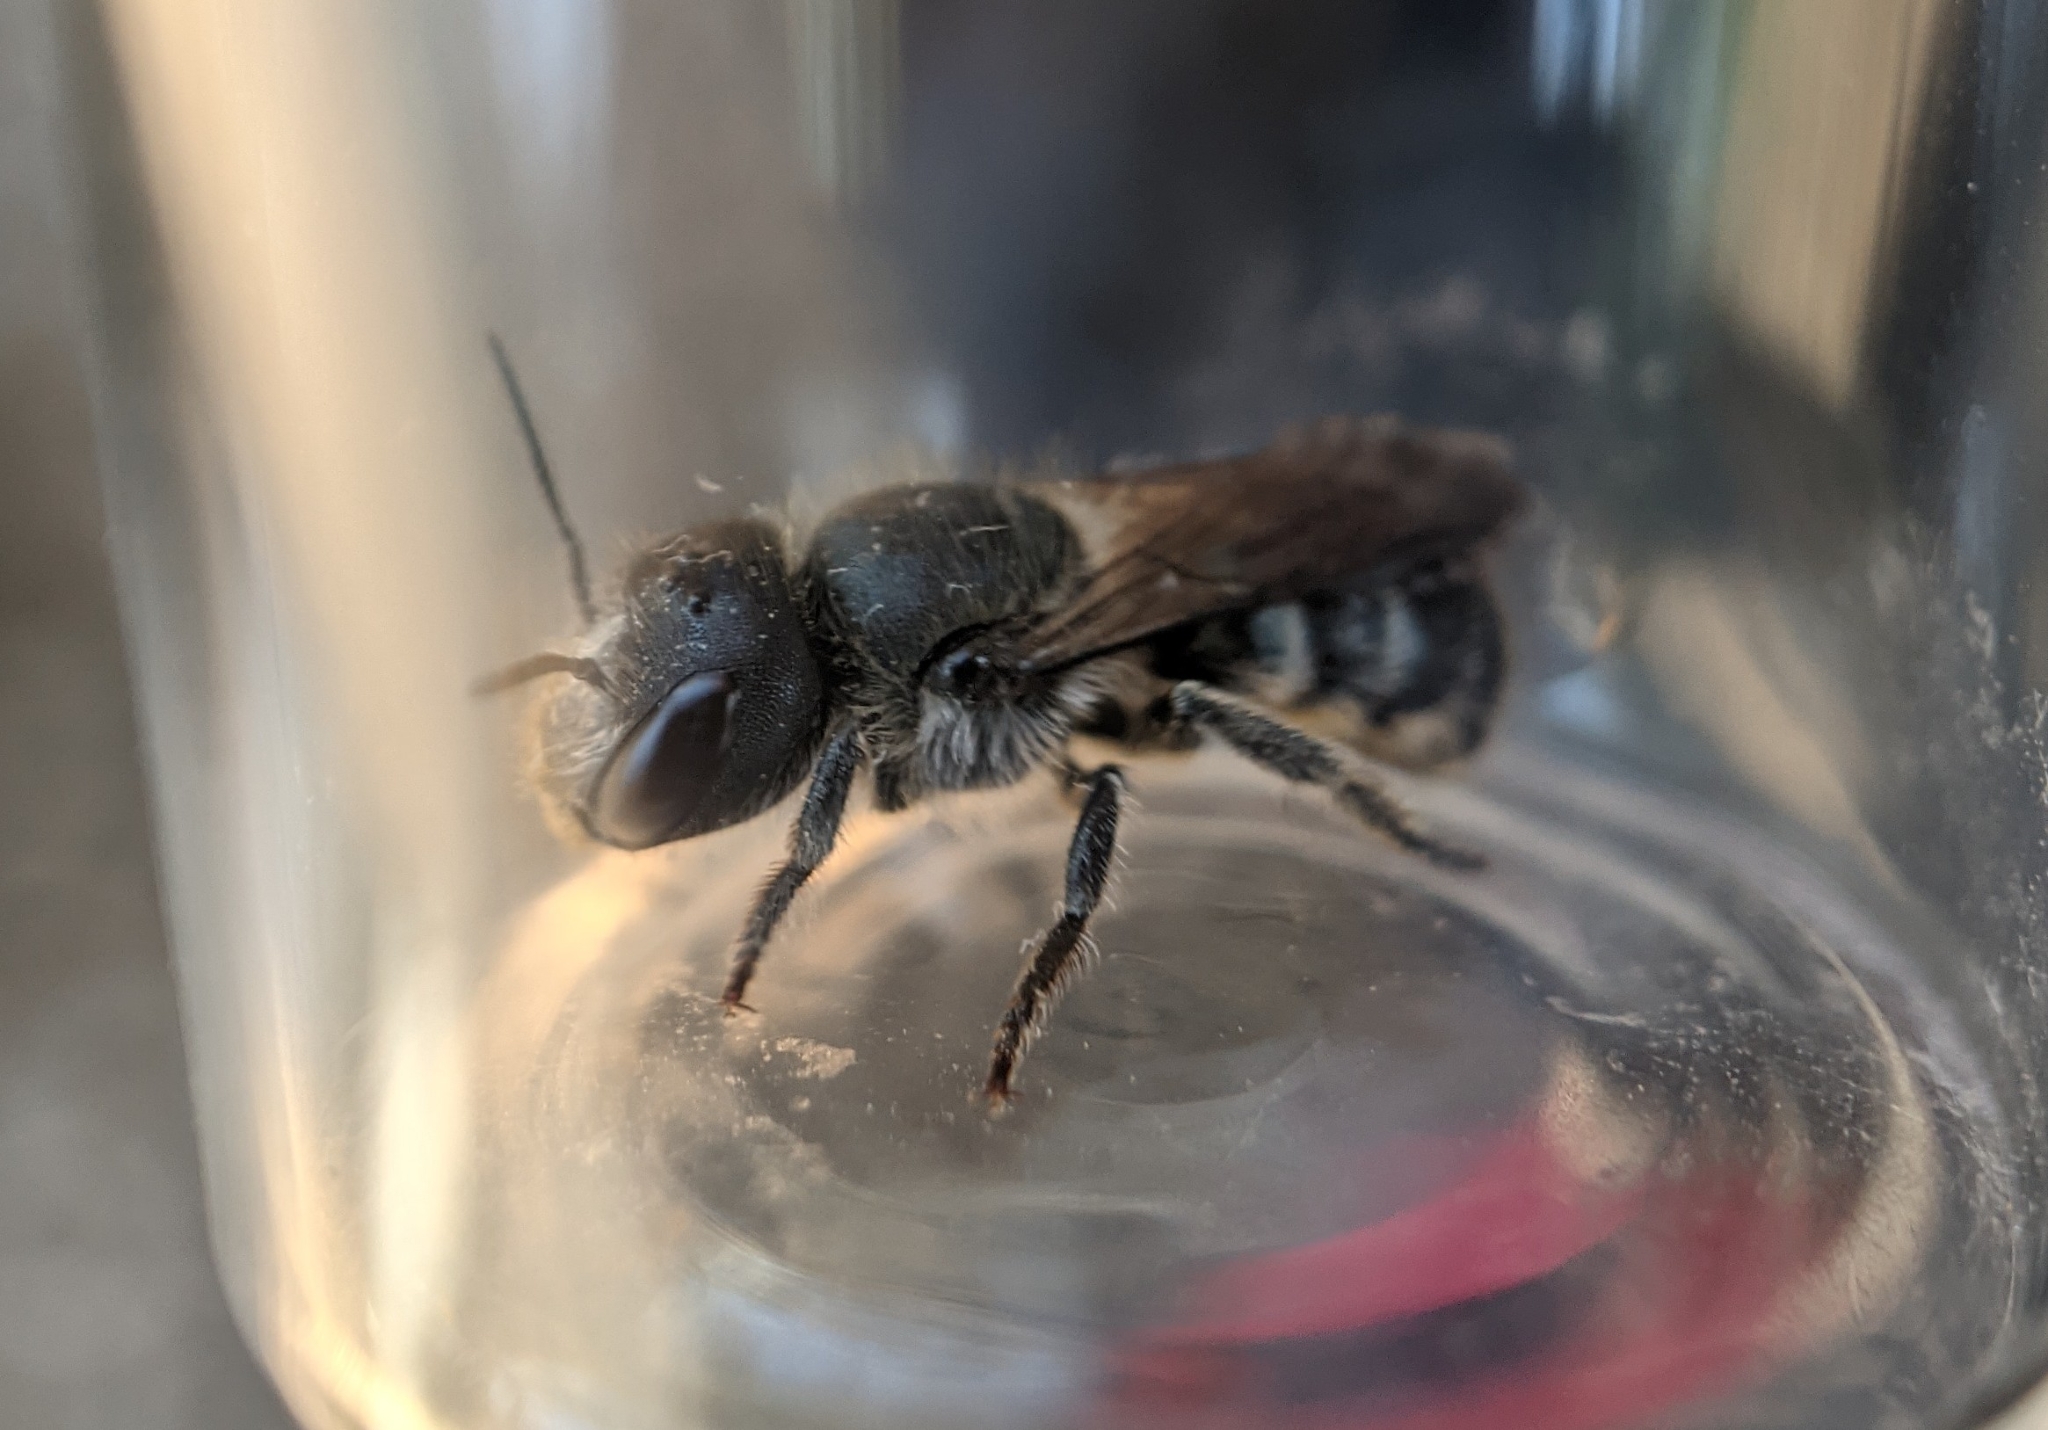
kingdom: Animalia
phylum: Arthropoda
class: Insecta
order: Hymenoptera
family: Megachilidae
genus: Osmia
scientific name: Osmia caerulescens
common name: Blue mason bee
